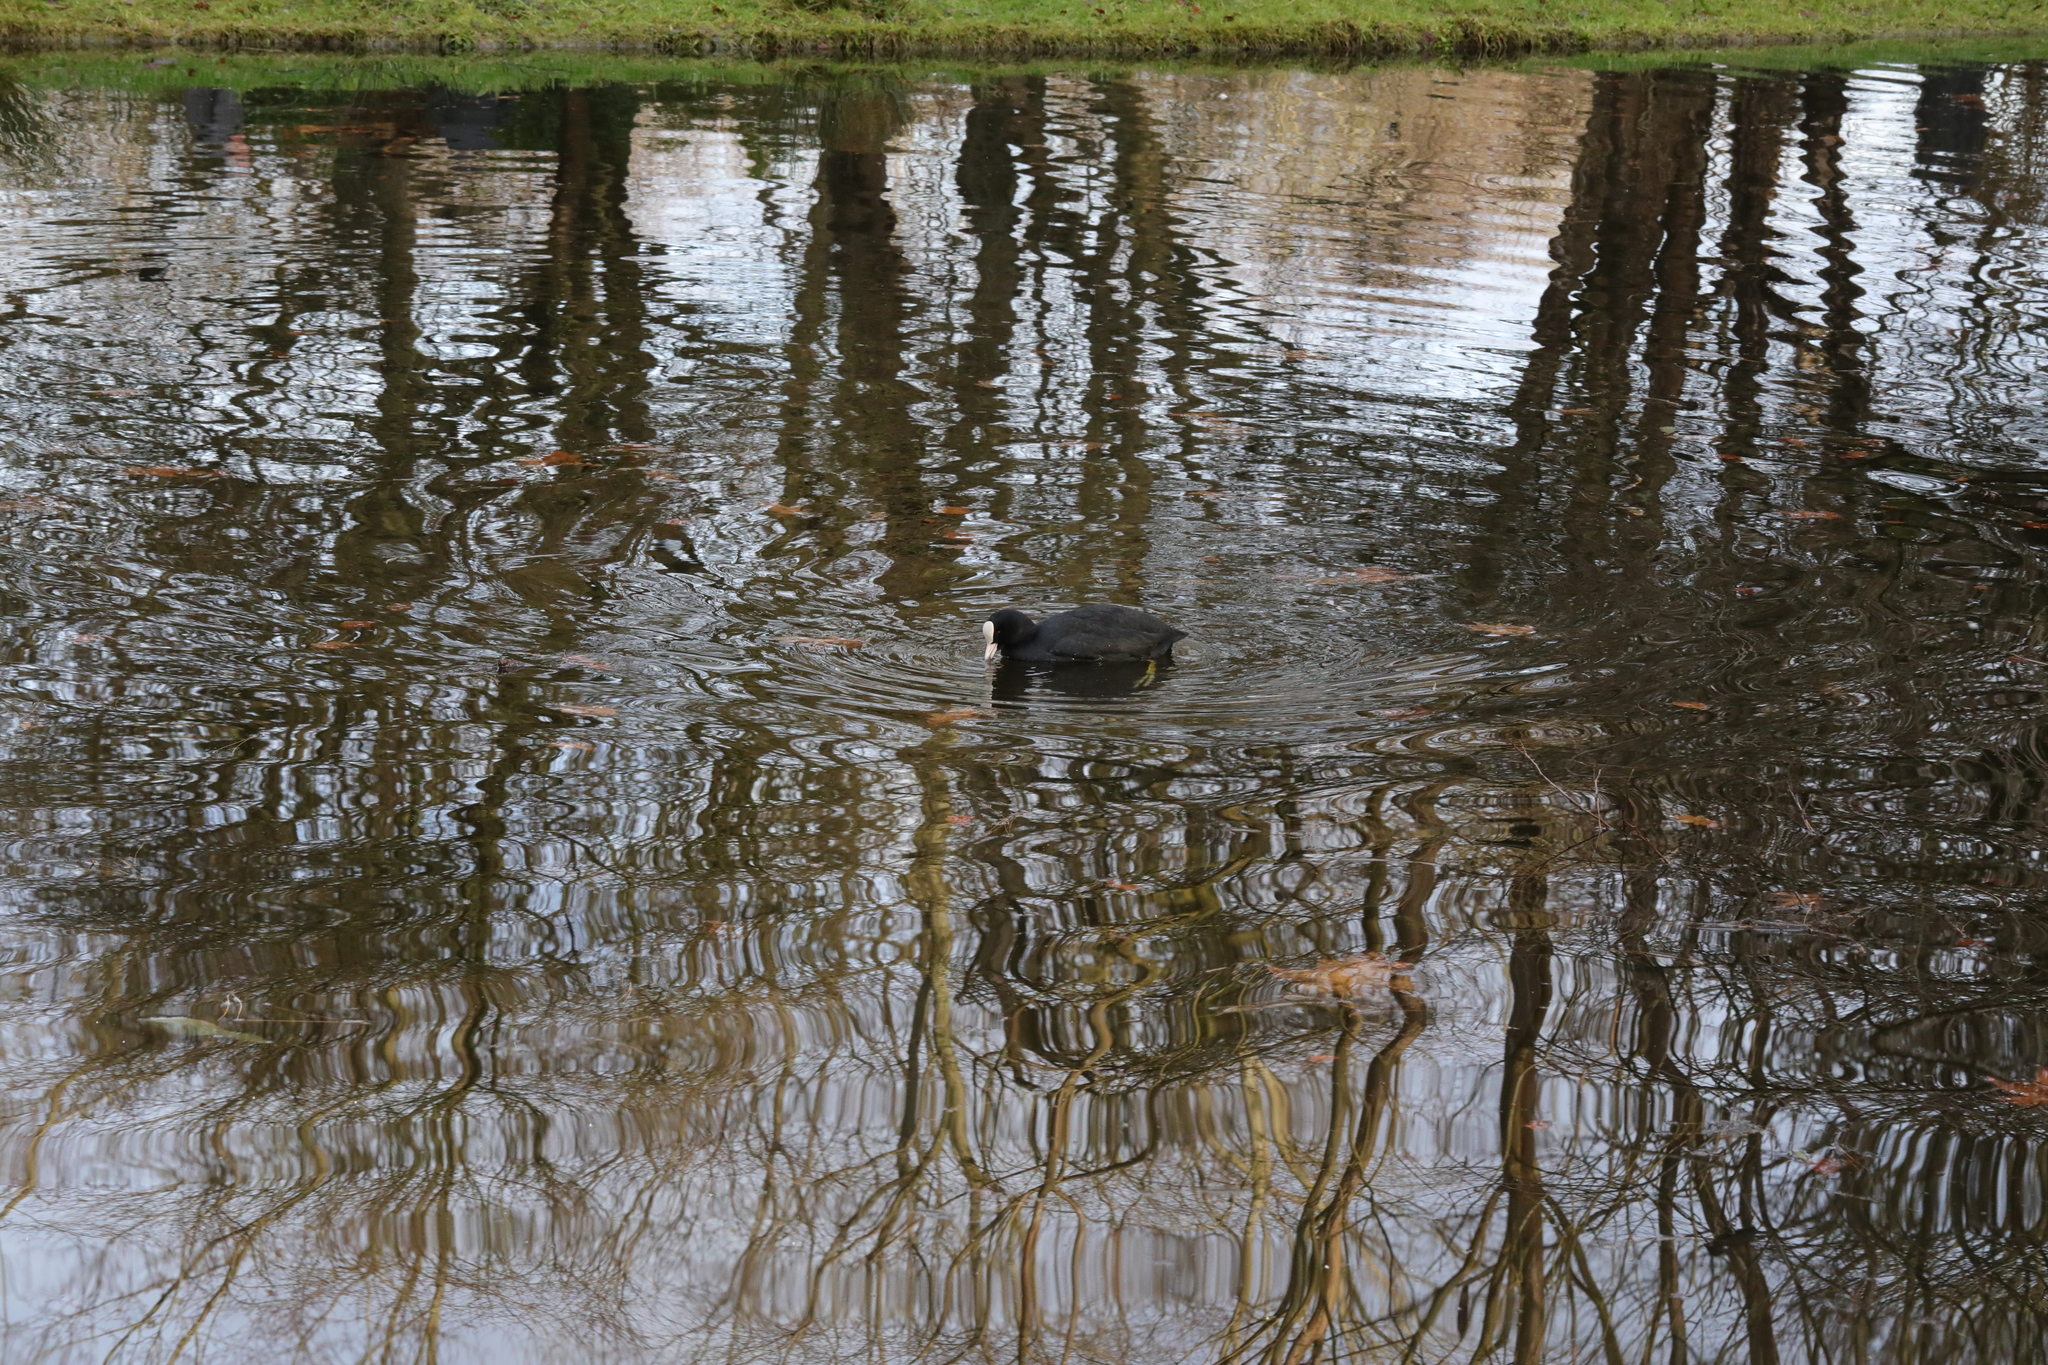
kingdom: Animalia
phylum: Chordata
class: Aves
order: Gruiformes
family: Rallidae
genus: Fulica
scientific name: Fulica atra
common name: Eurasian coot
